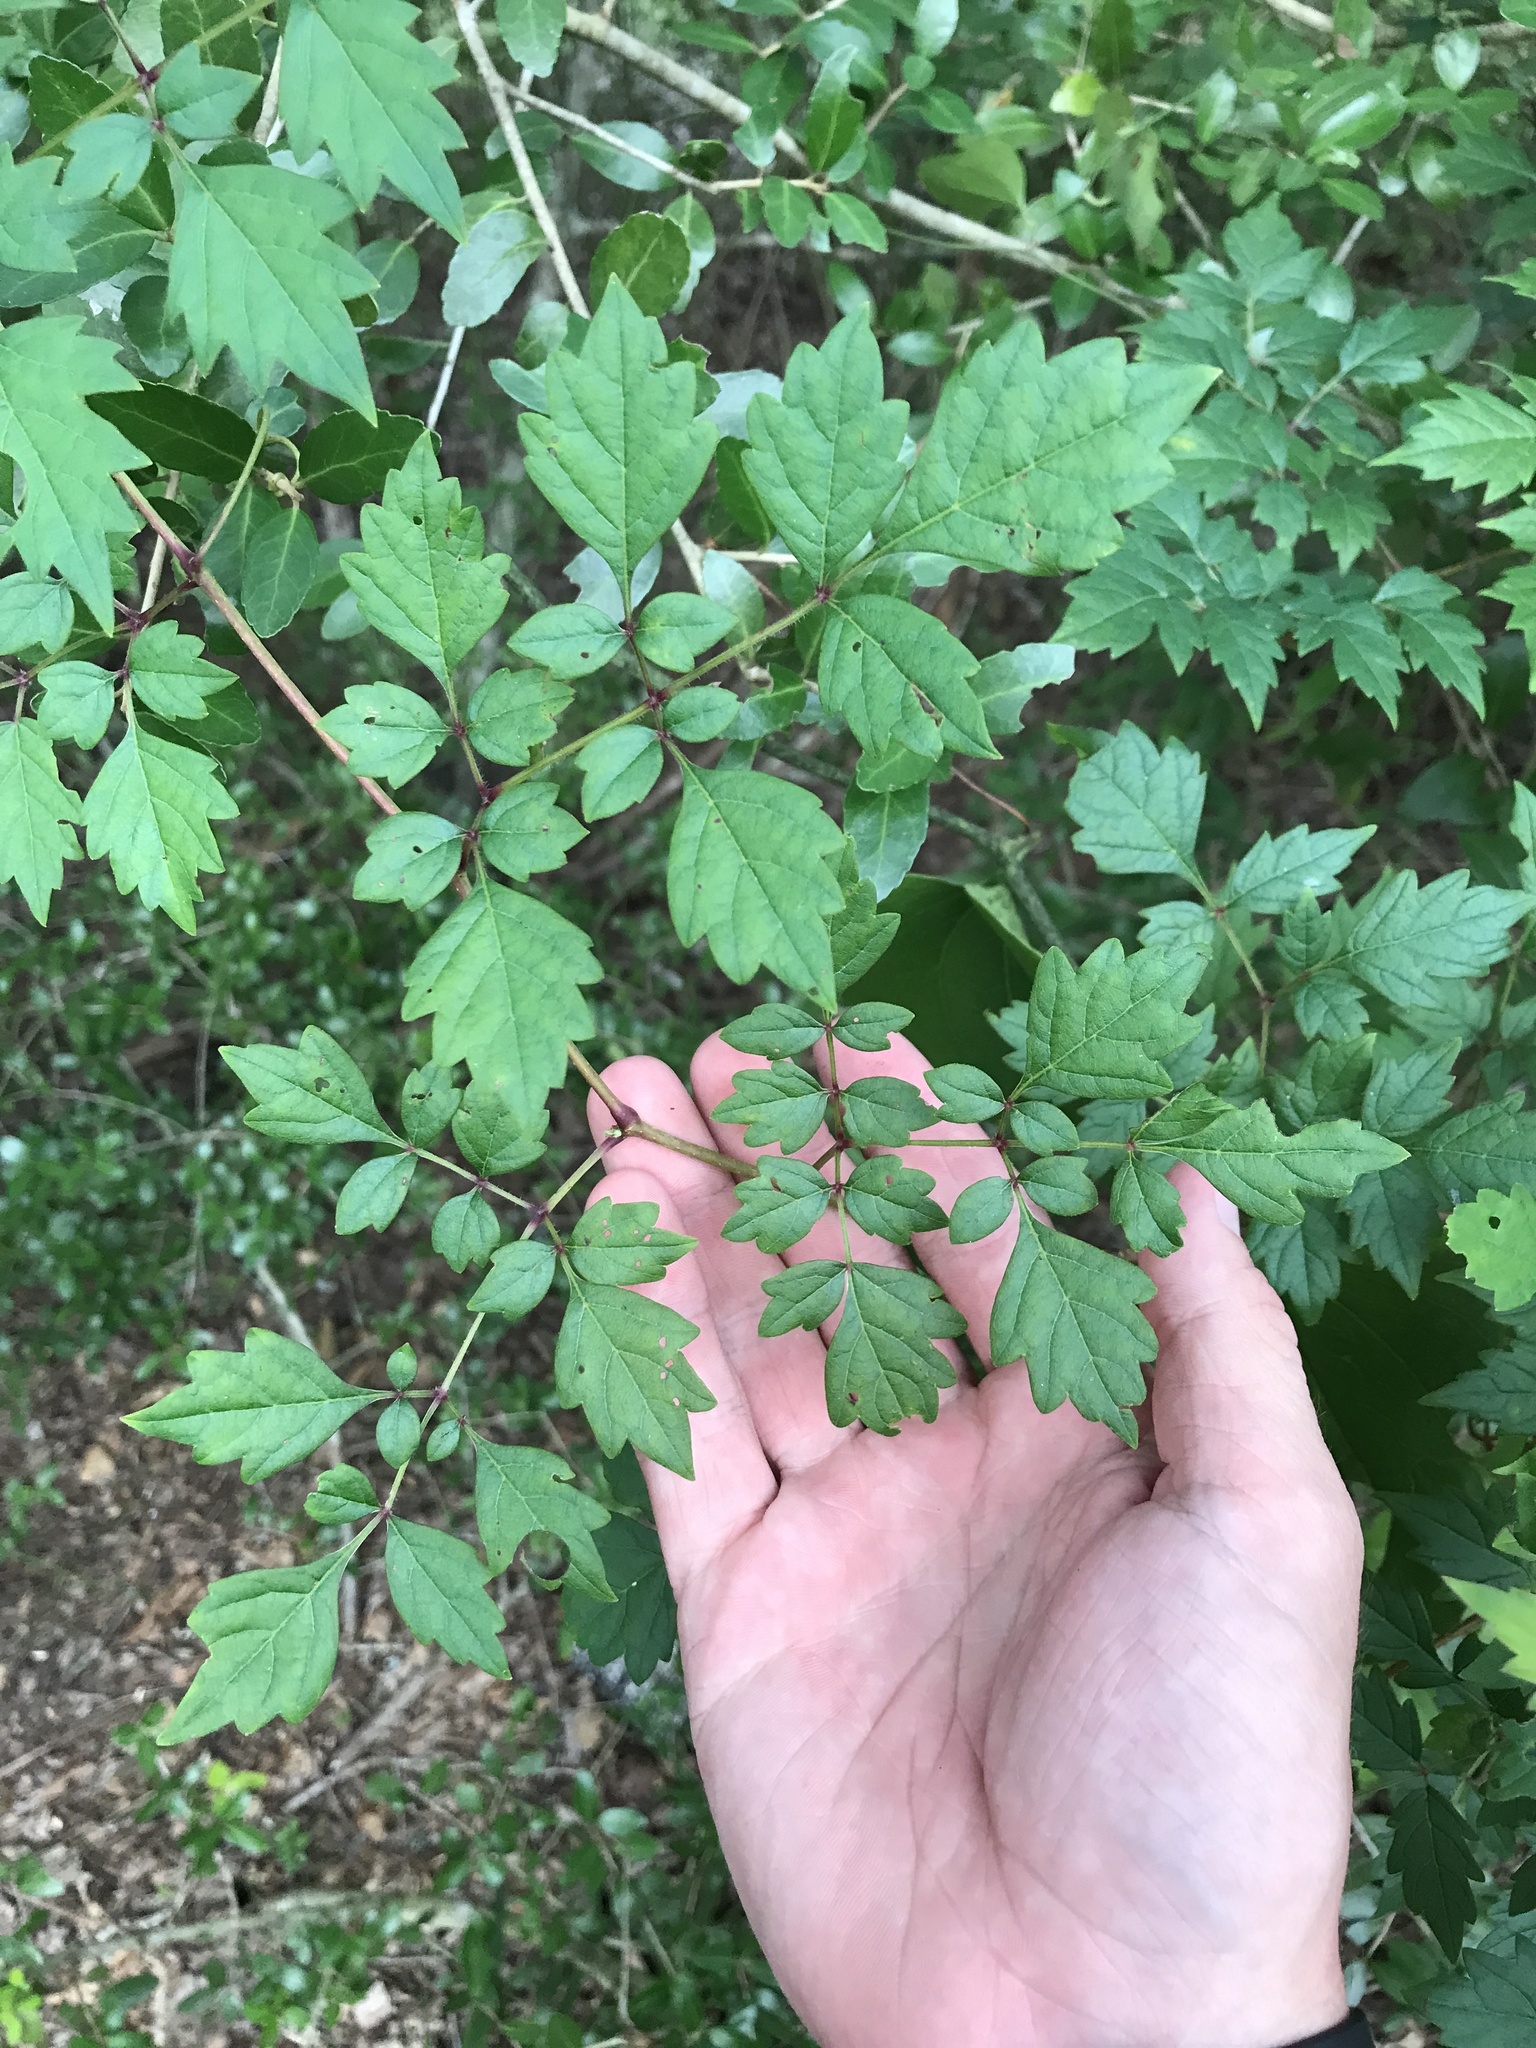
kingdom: Plantae
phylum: Tracheophyta
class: Magnoliopsida
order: Vitales
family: Vitaceae
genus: Nekemias
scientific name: Nekemias arborea
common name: Peppervine
